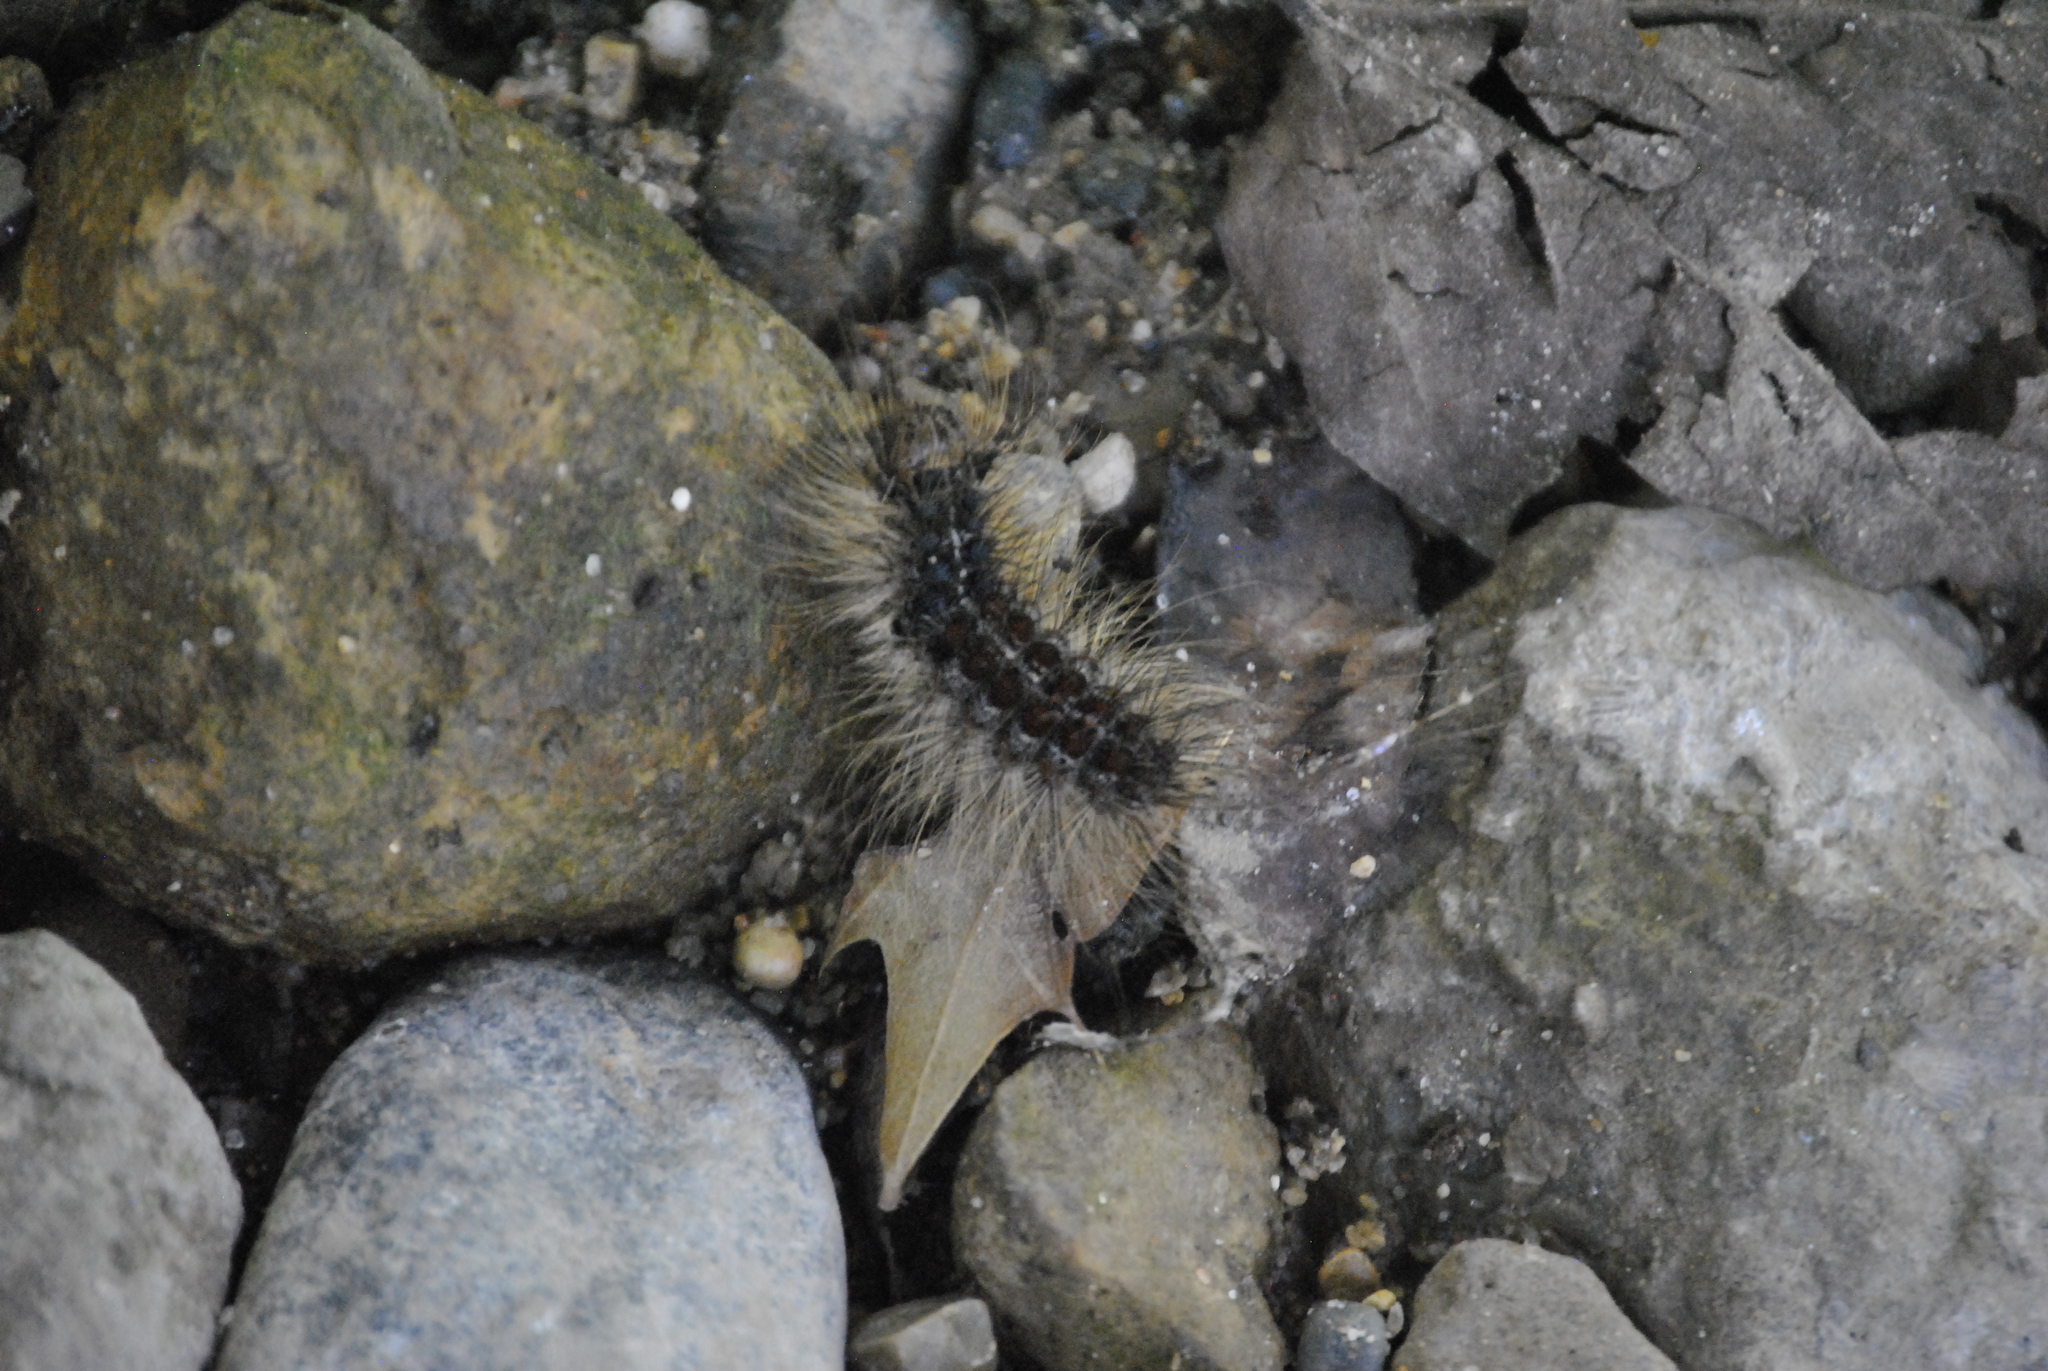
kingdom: Animalia
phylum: Arthropoda
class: Insecta
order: Lepidoptera
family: Erebidae
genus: Lymantria
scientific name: Lymantria dispar
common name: Gypsy moth
